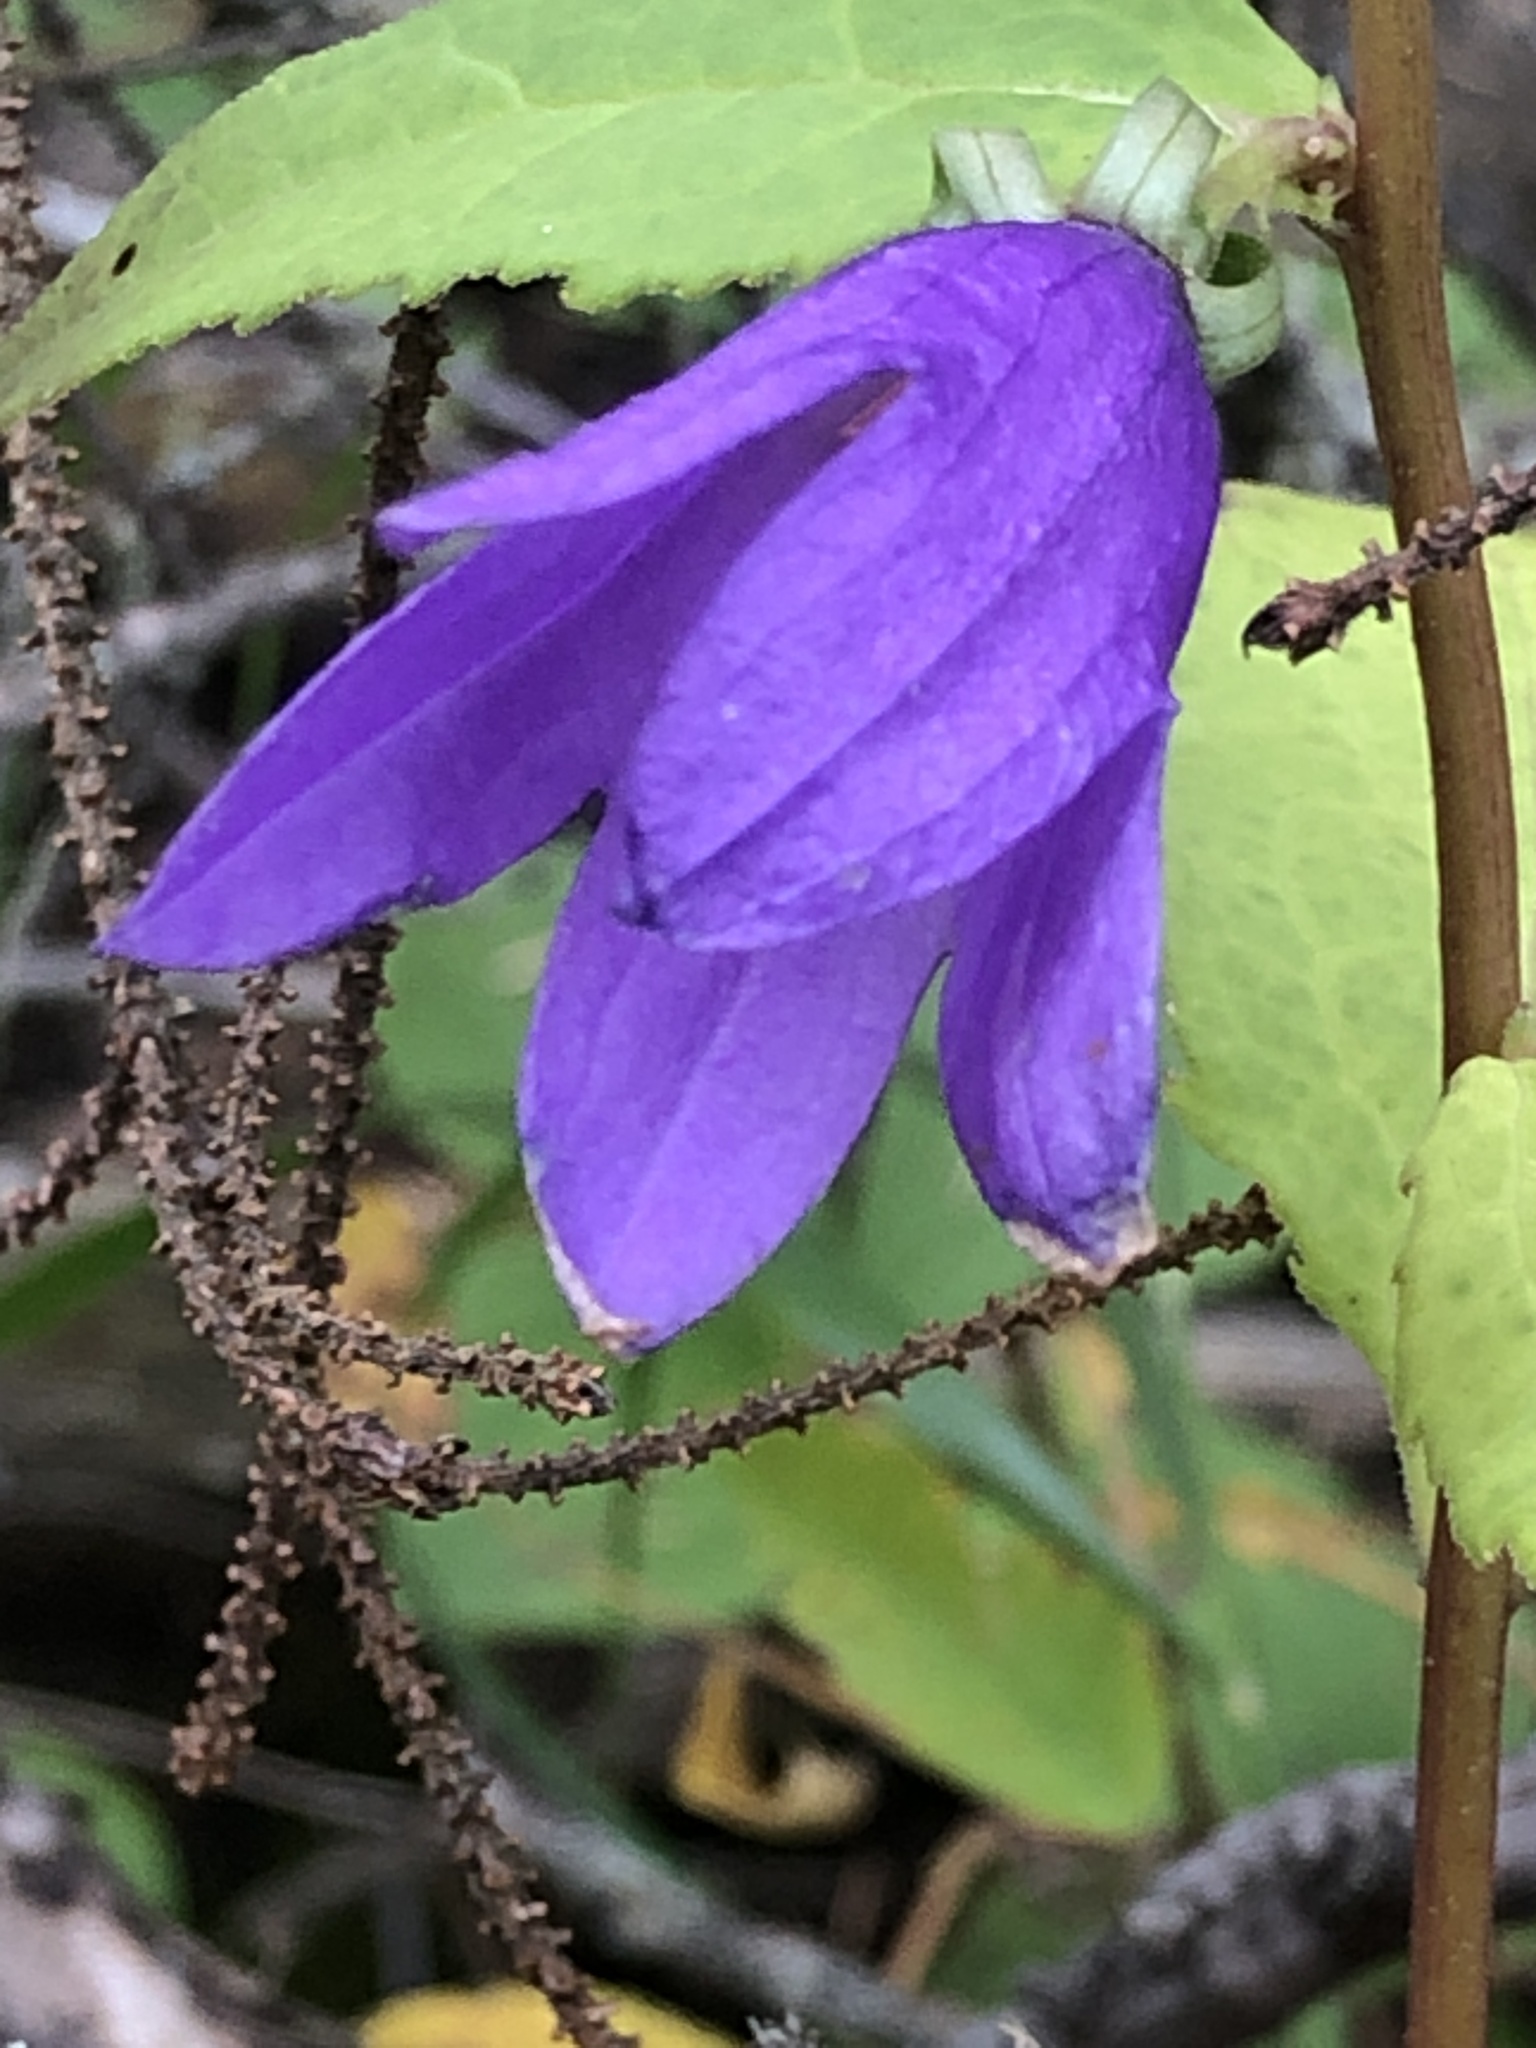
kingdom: Plantae
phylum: Tracheophyta
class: Magnoliopsida
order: Asterales
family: Campanulaceae
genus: Campanula
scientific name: Campanula rapunculoides
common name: Creeping bellflower
